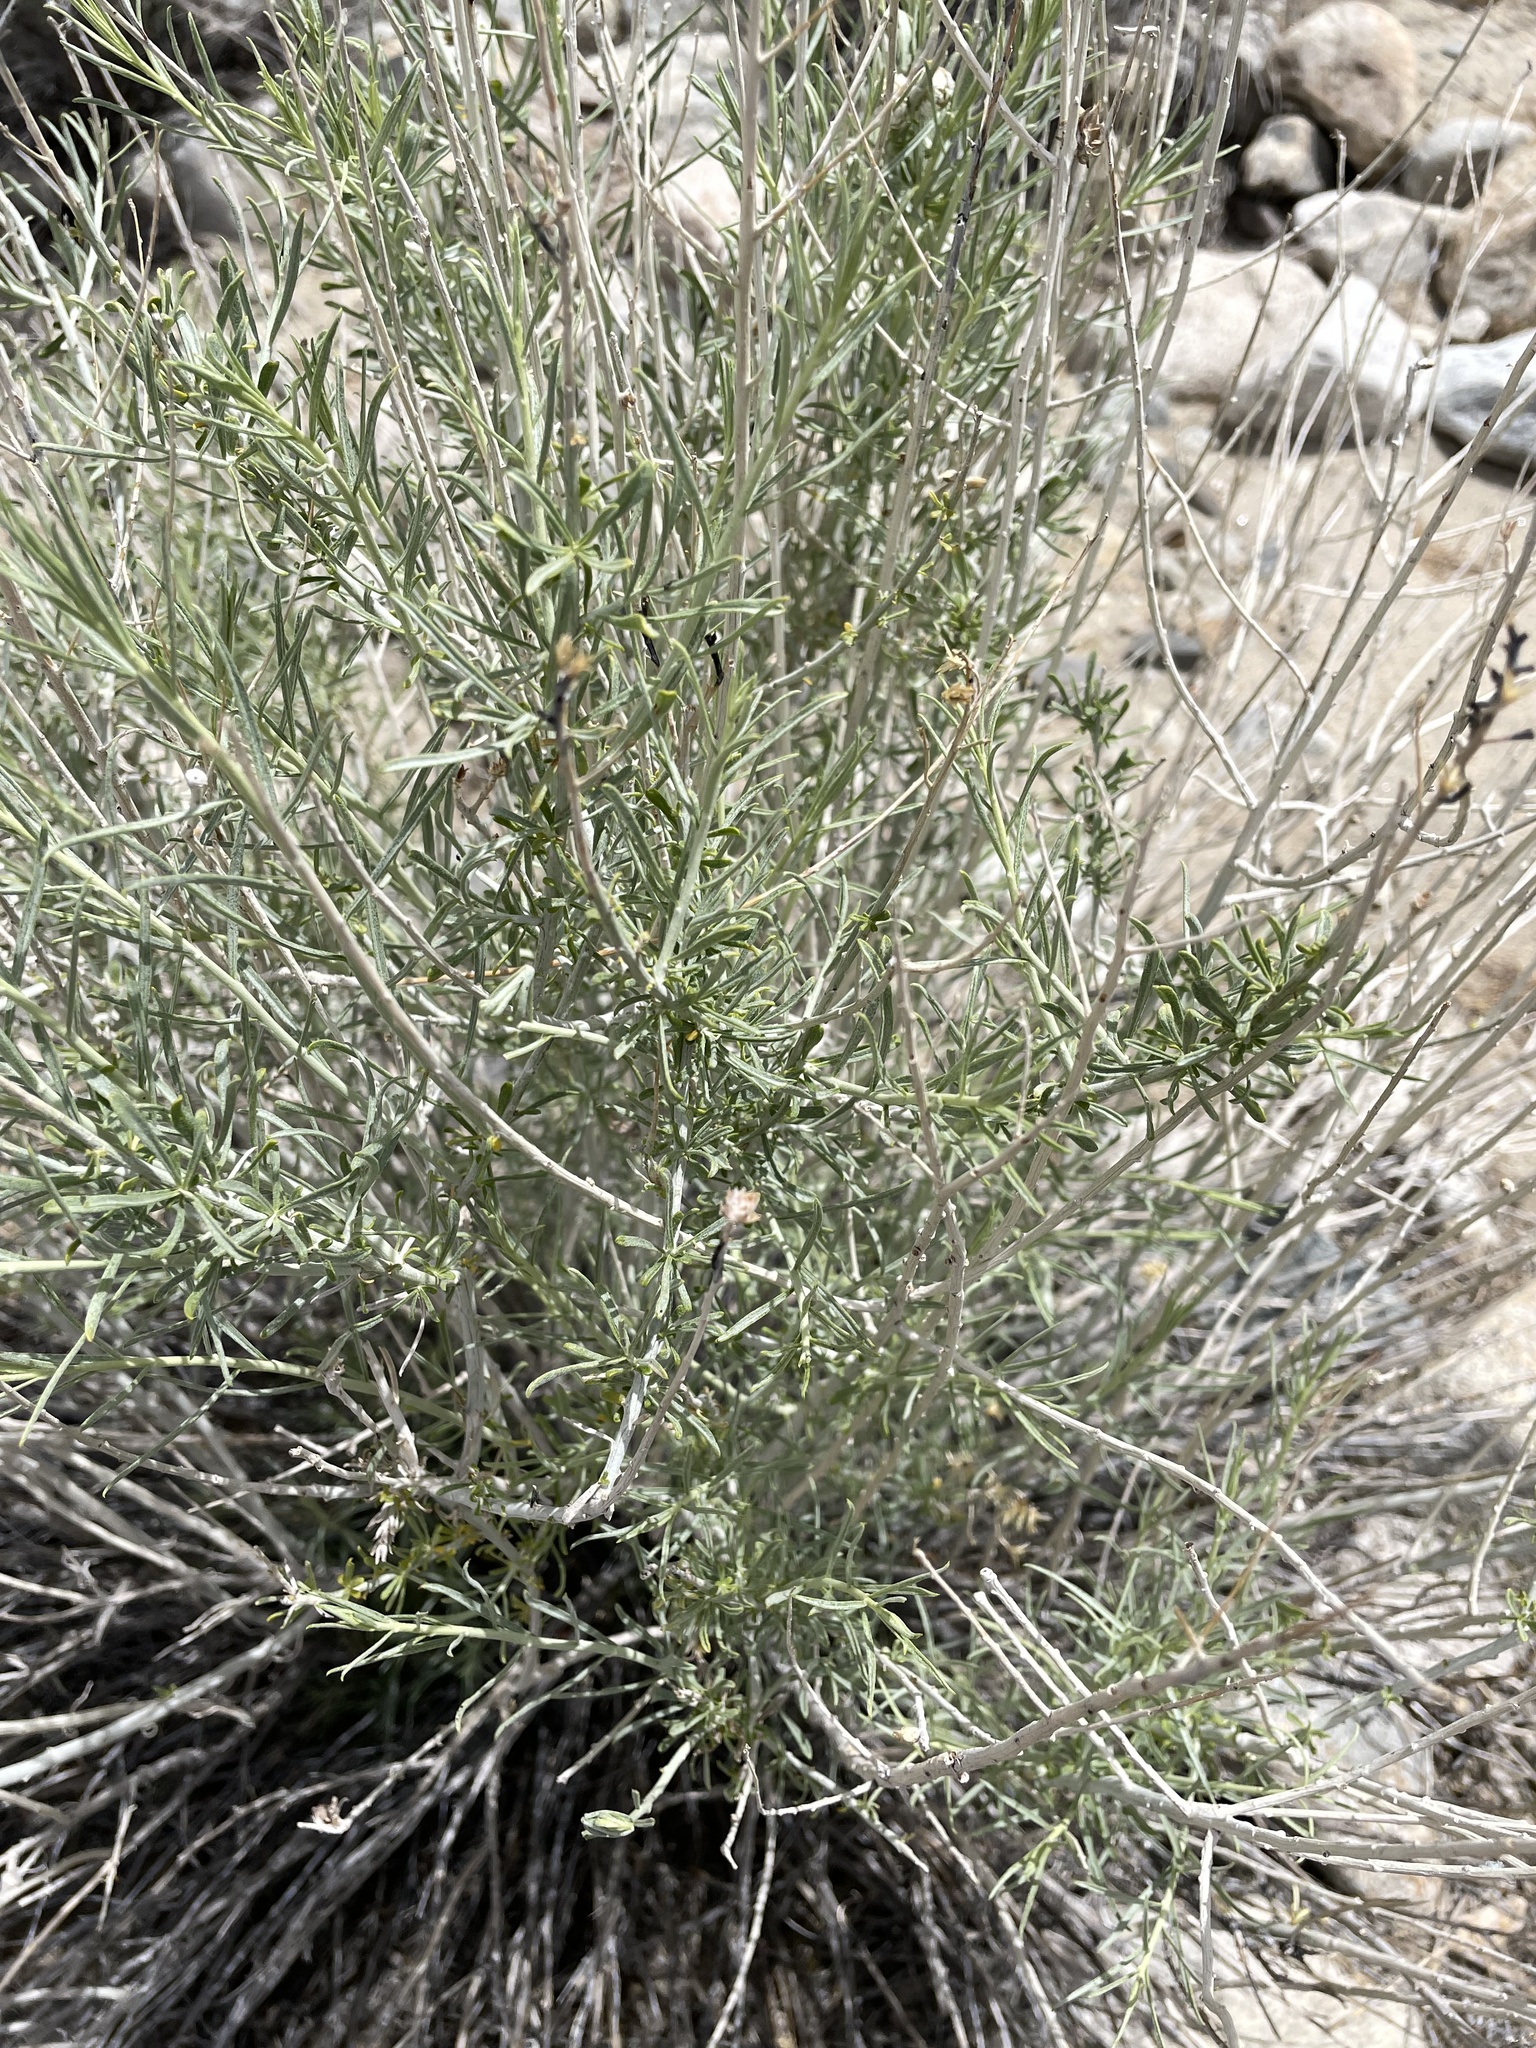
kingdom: Plantae
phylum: Tracheophyta
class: Magnoliopsida
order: Asterales
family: Asteraceae
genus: Ericameria
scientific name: Ericameria nauseosa
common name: Rubber rabbitbrush
